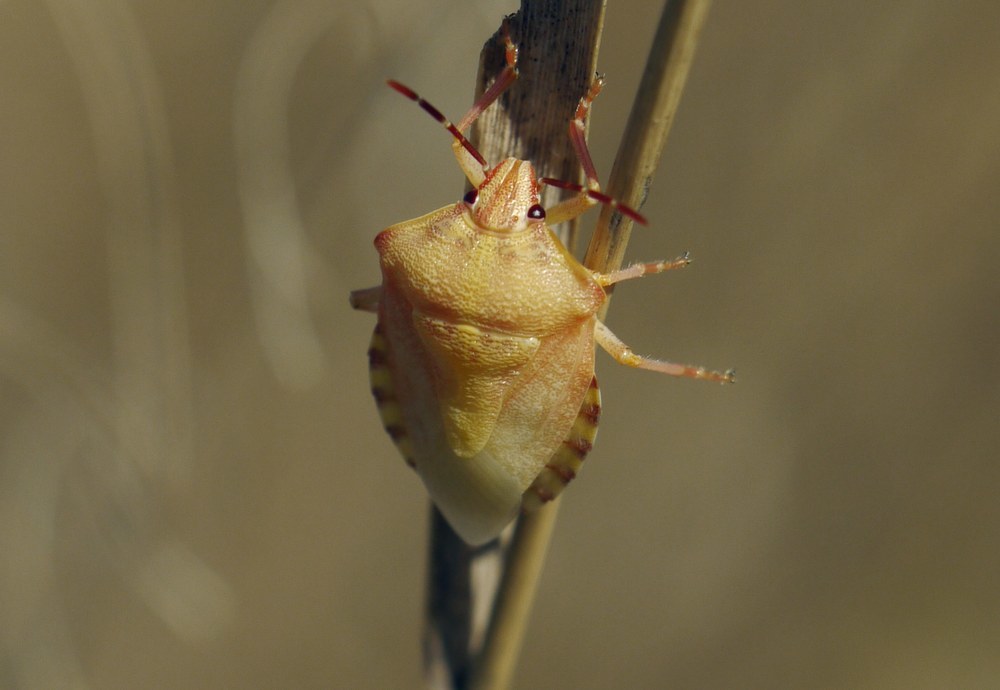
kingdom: Animalia
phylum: Arthropoda
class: Insecta
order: Hemiptera
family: Pentatomidae
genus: Carpocoris
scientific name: Carpocoris purpureipennis
